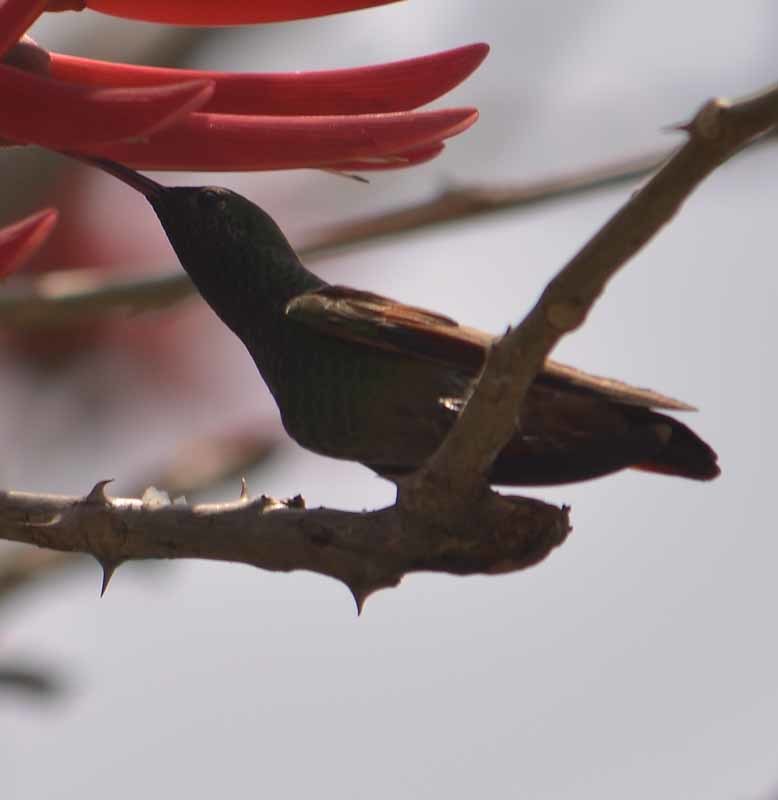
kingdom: Animalia
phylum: Chordata
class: Aves
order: Apodiformes
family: Trochilidae
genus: Saucerottia
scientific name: Saucerottia beryllina
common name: Berylline hummingbird
